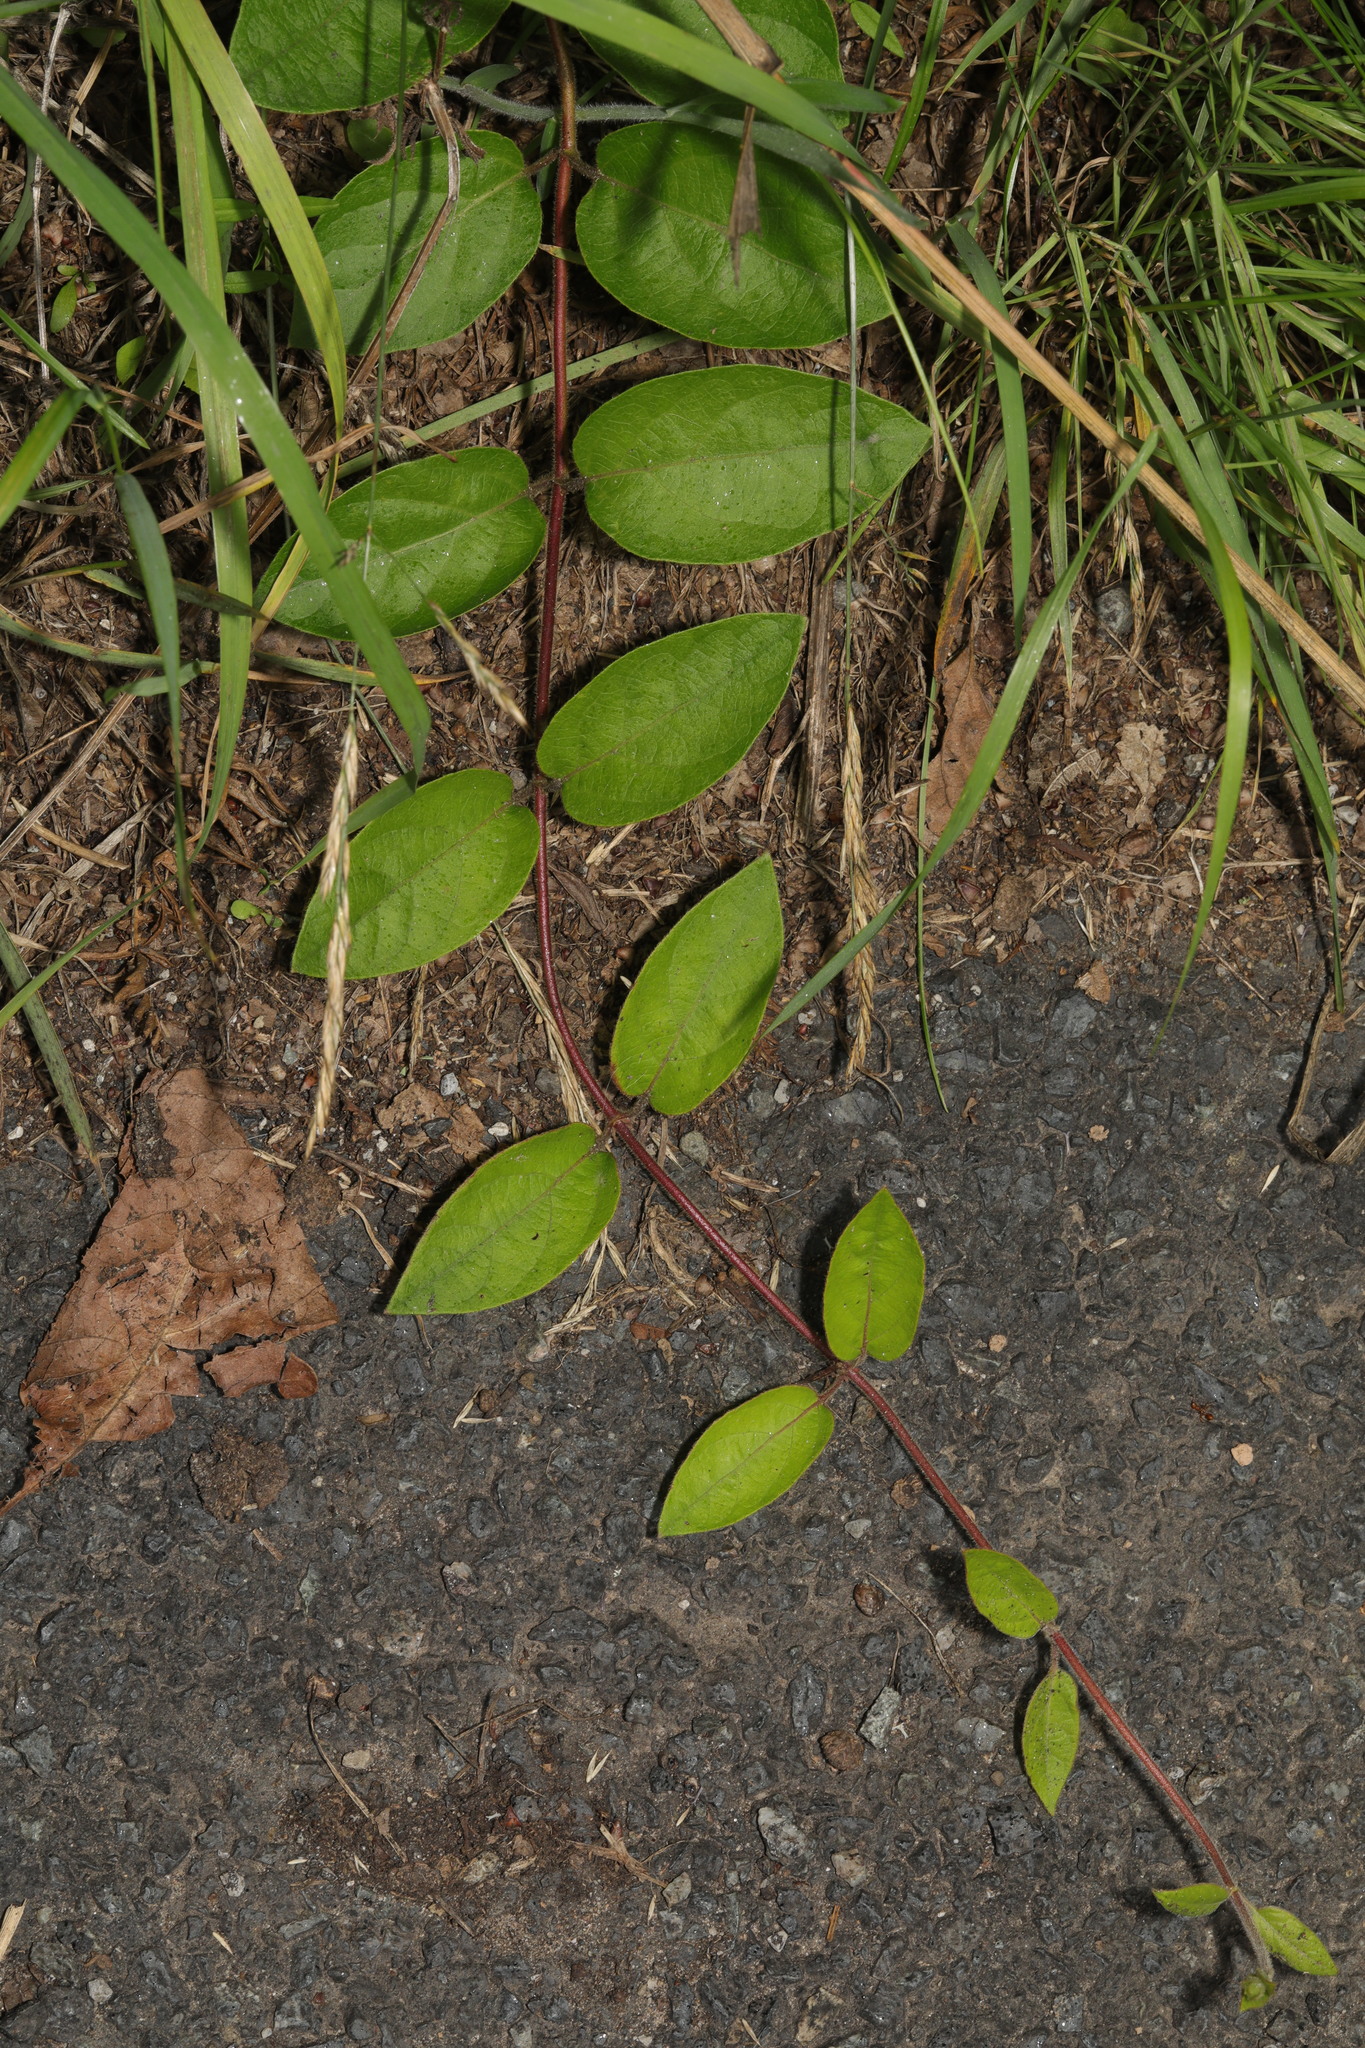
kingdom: Plantae
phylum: Tracheophyta
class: Magnoliopsida
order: Dipsacales
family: Caprifoliaceae
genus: Lonicera
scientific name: Lonicera japonica
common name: Japanese honeysuckle
